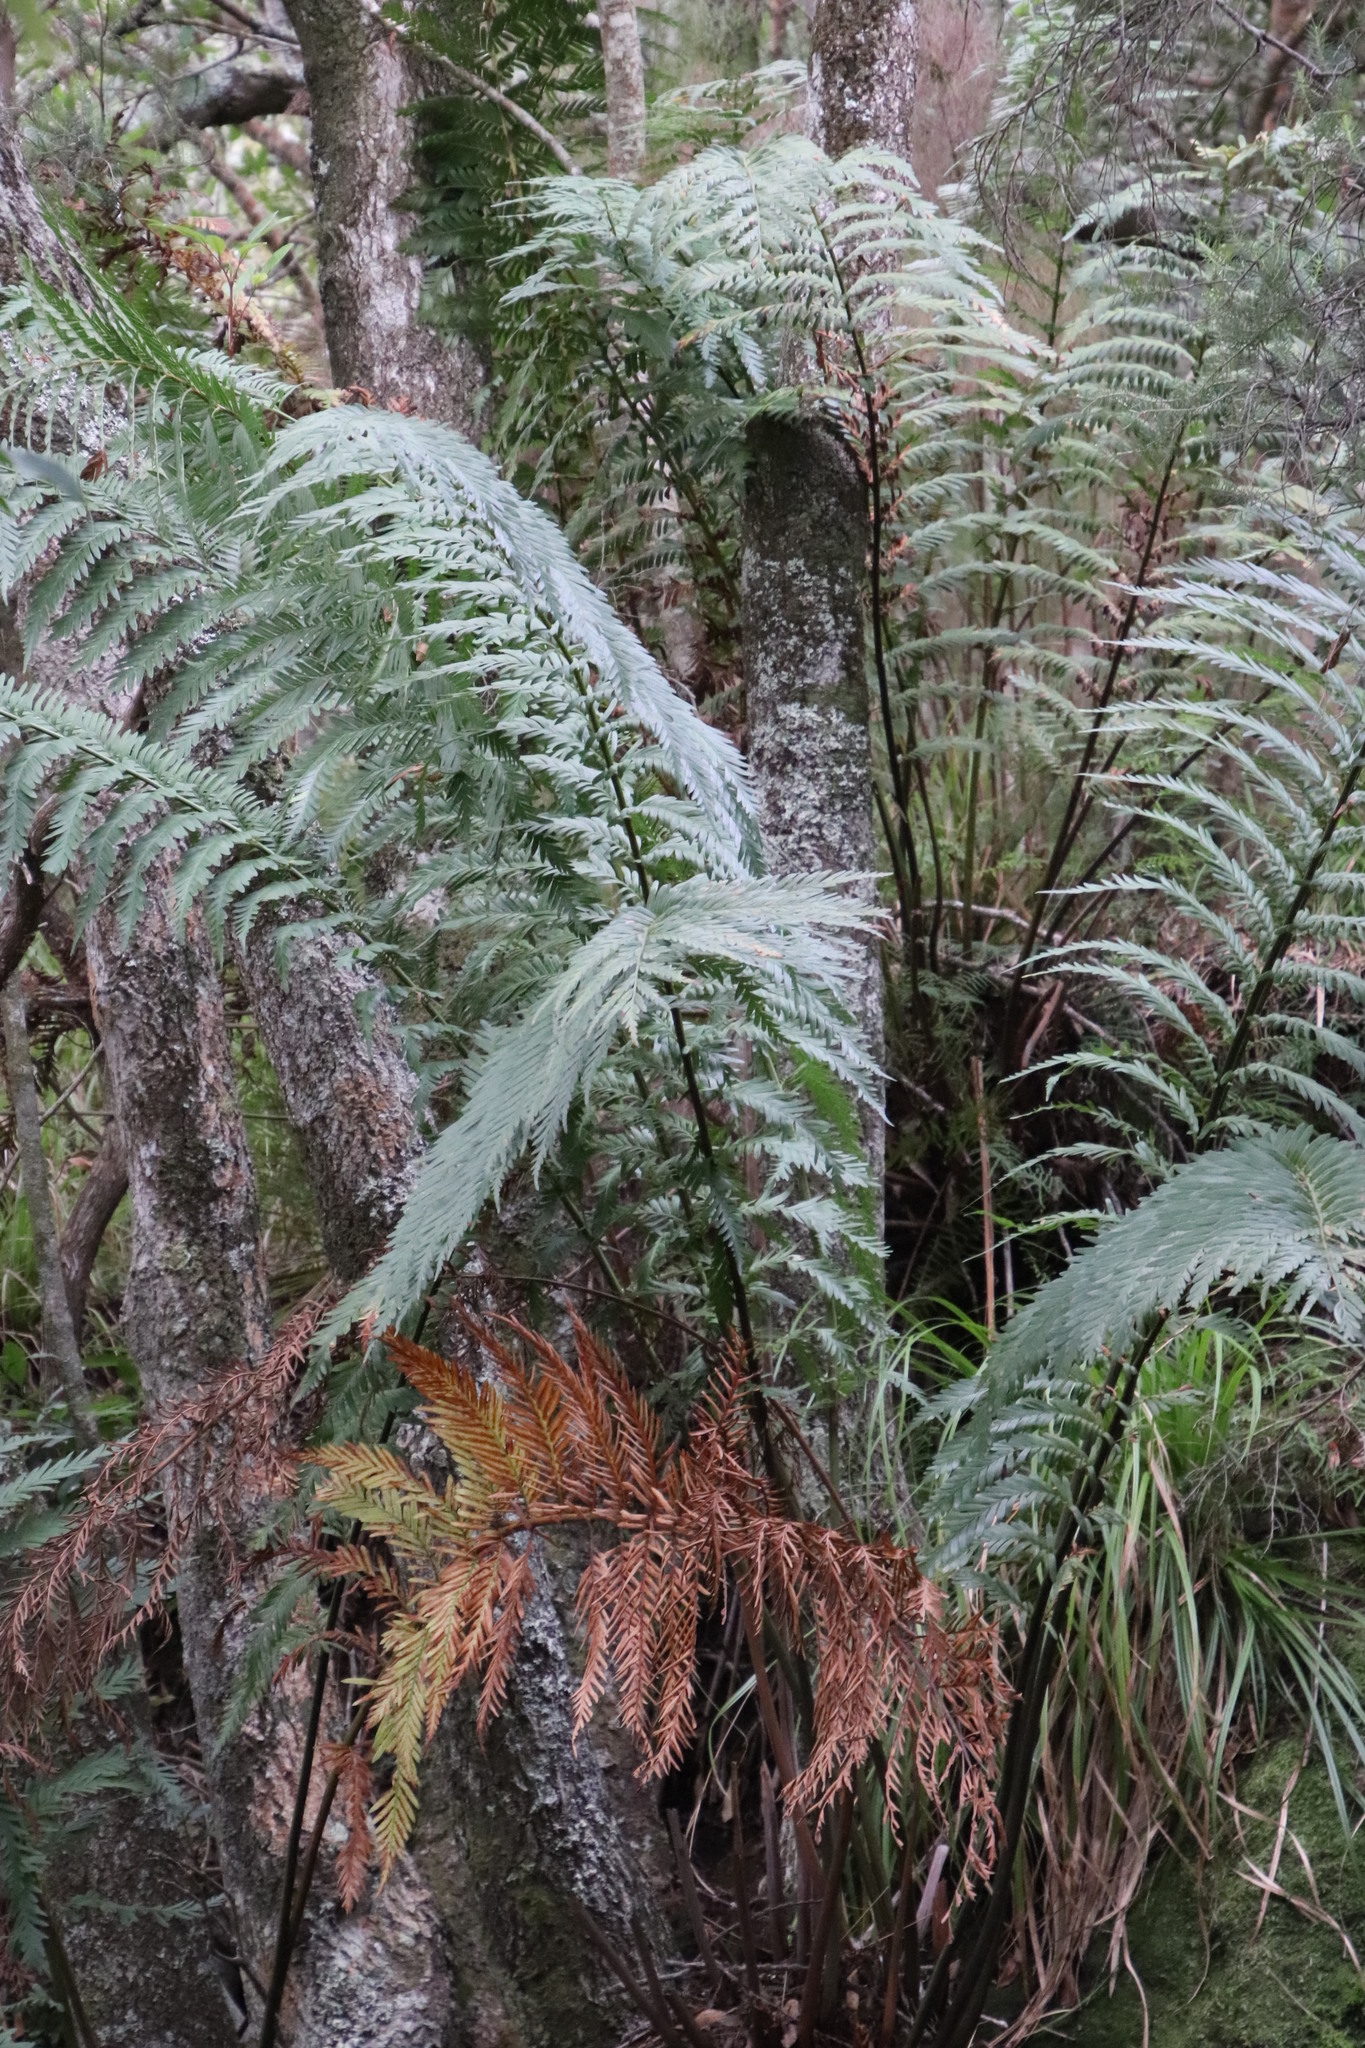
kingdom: Plantae
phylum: Tracheophyta
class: Polypodiopsida
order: Osmundales
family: Osmundaceae
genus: Todea
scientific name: Todea barbara
